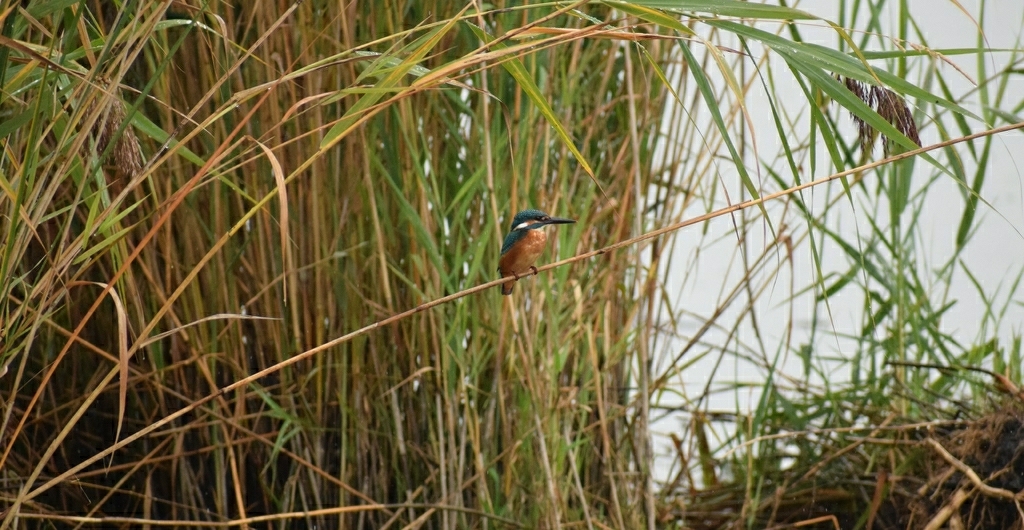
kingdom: Animalia
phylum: Chordata
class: Aves
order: Coraciiformes
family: Alcedinidae
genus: Alcedo
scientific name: Alcedo atthis
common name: Common kingfisher
